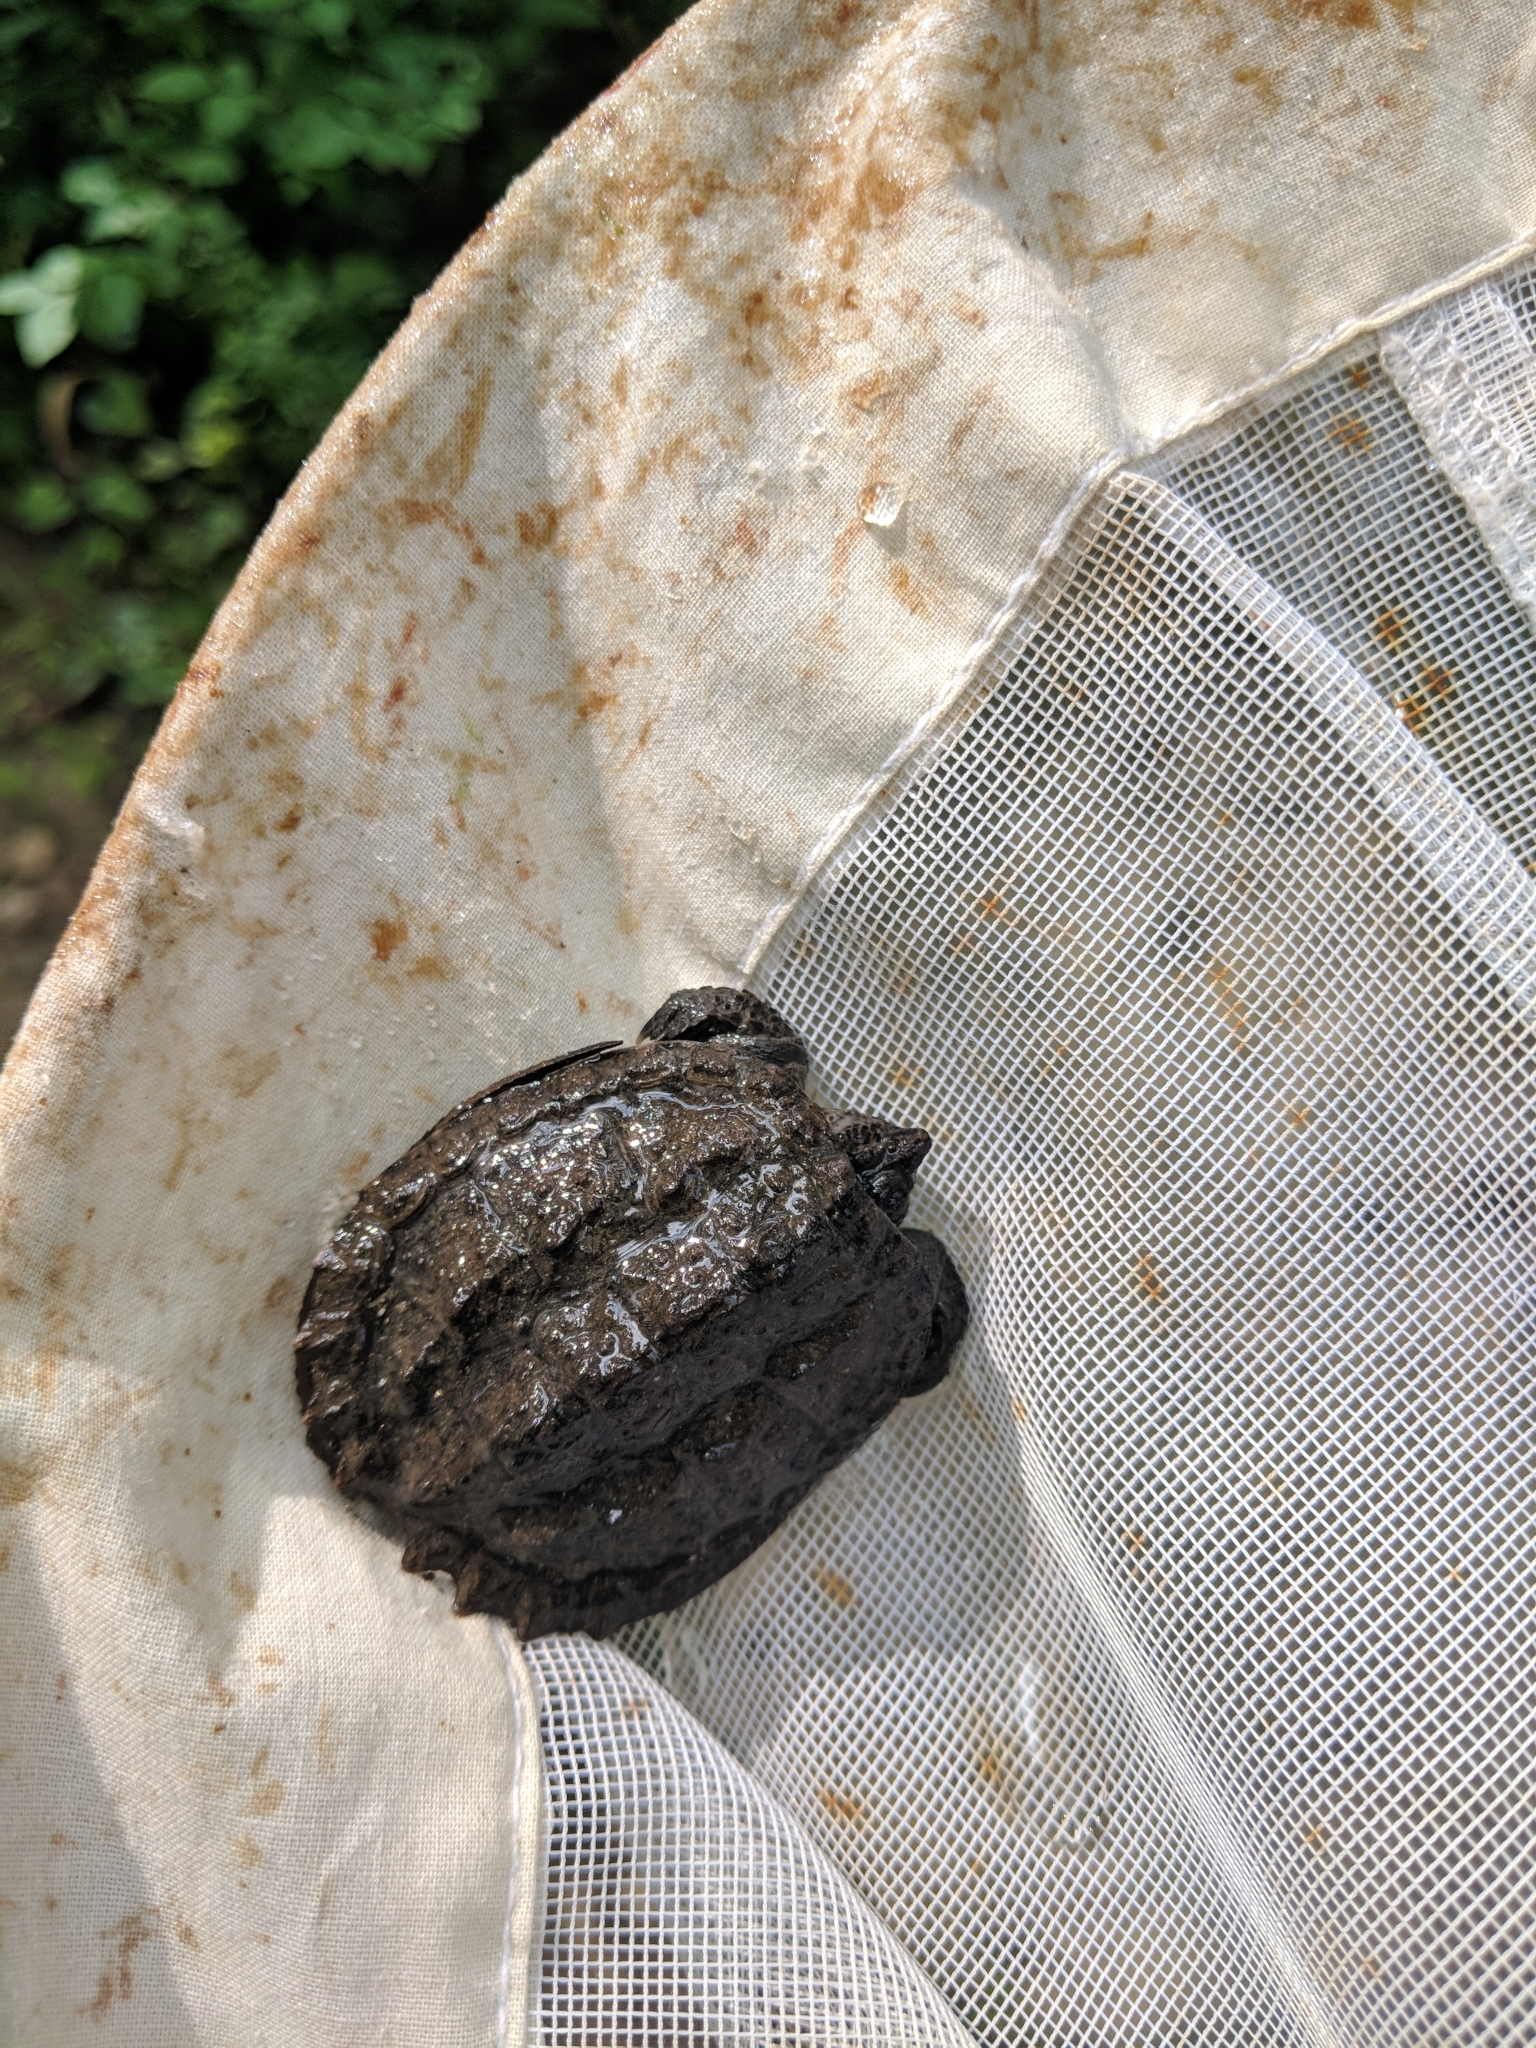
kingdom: Animalia
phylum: Chordata
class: Testudines
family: Chelydridae
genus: Chelydra
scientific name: Chelydra serpentina
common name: Common snapping turtle
